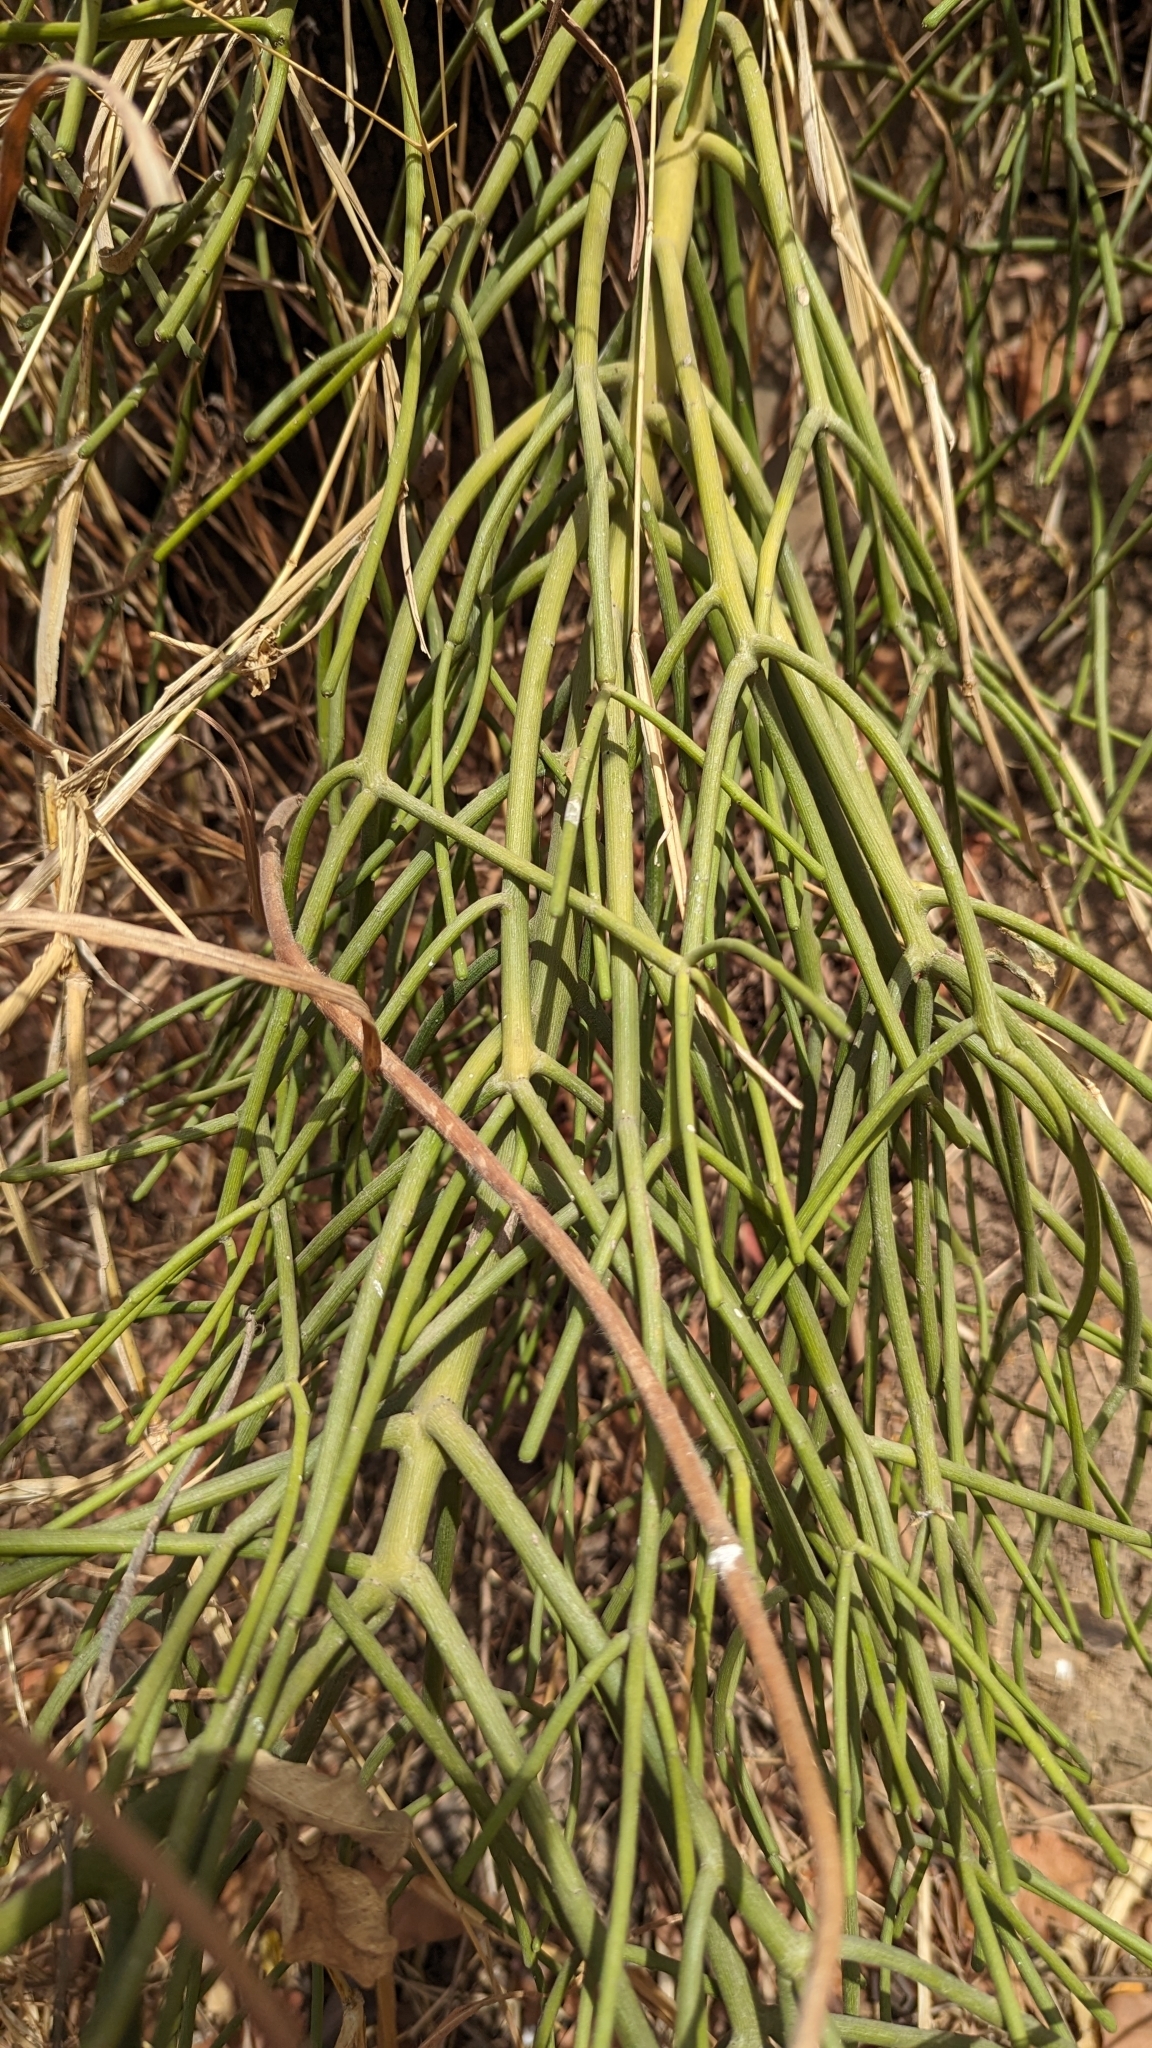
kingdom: Plantae
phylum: Tracheophyta
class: Magnoliopsida
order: Malpighiales
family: Euphorbiaceae
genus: Euphorbia
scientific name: Euphorbia tirucalli
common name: Indiantree spurge
